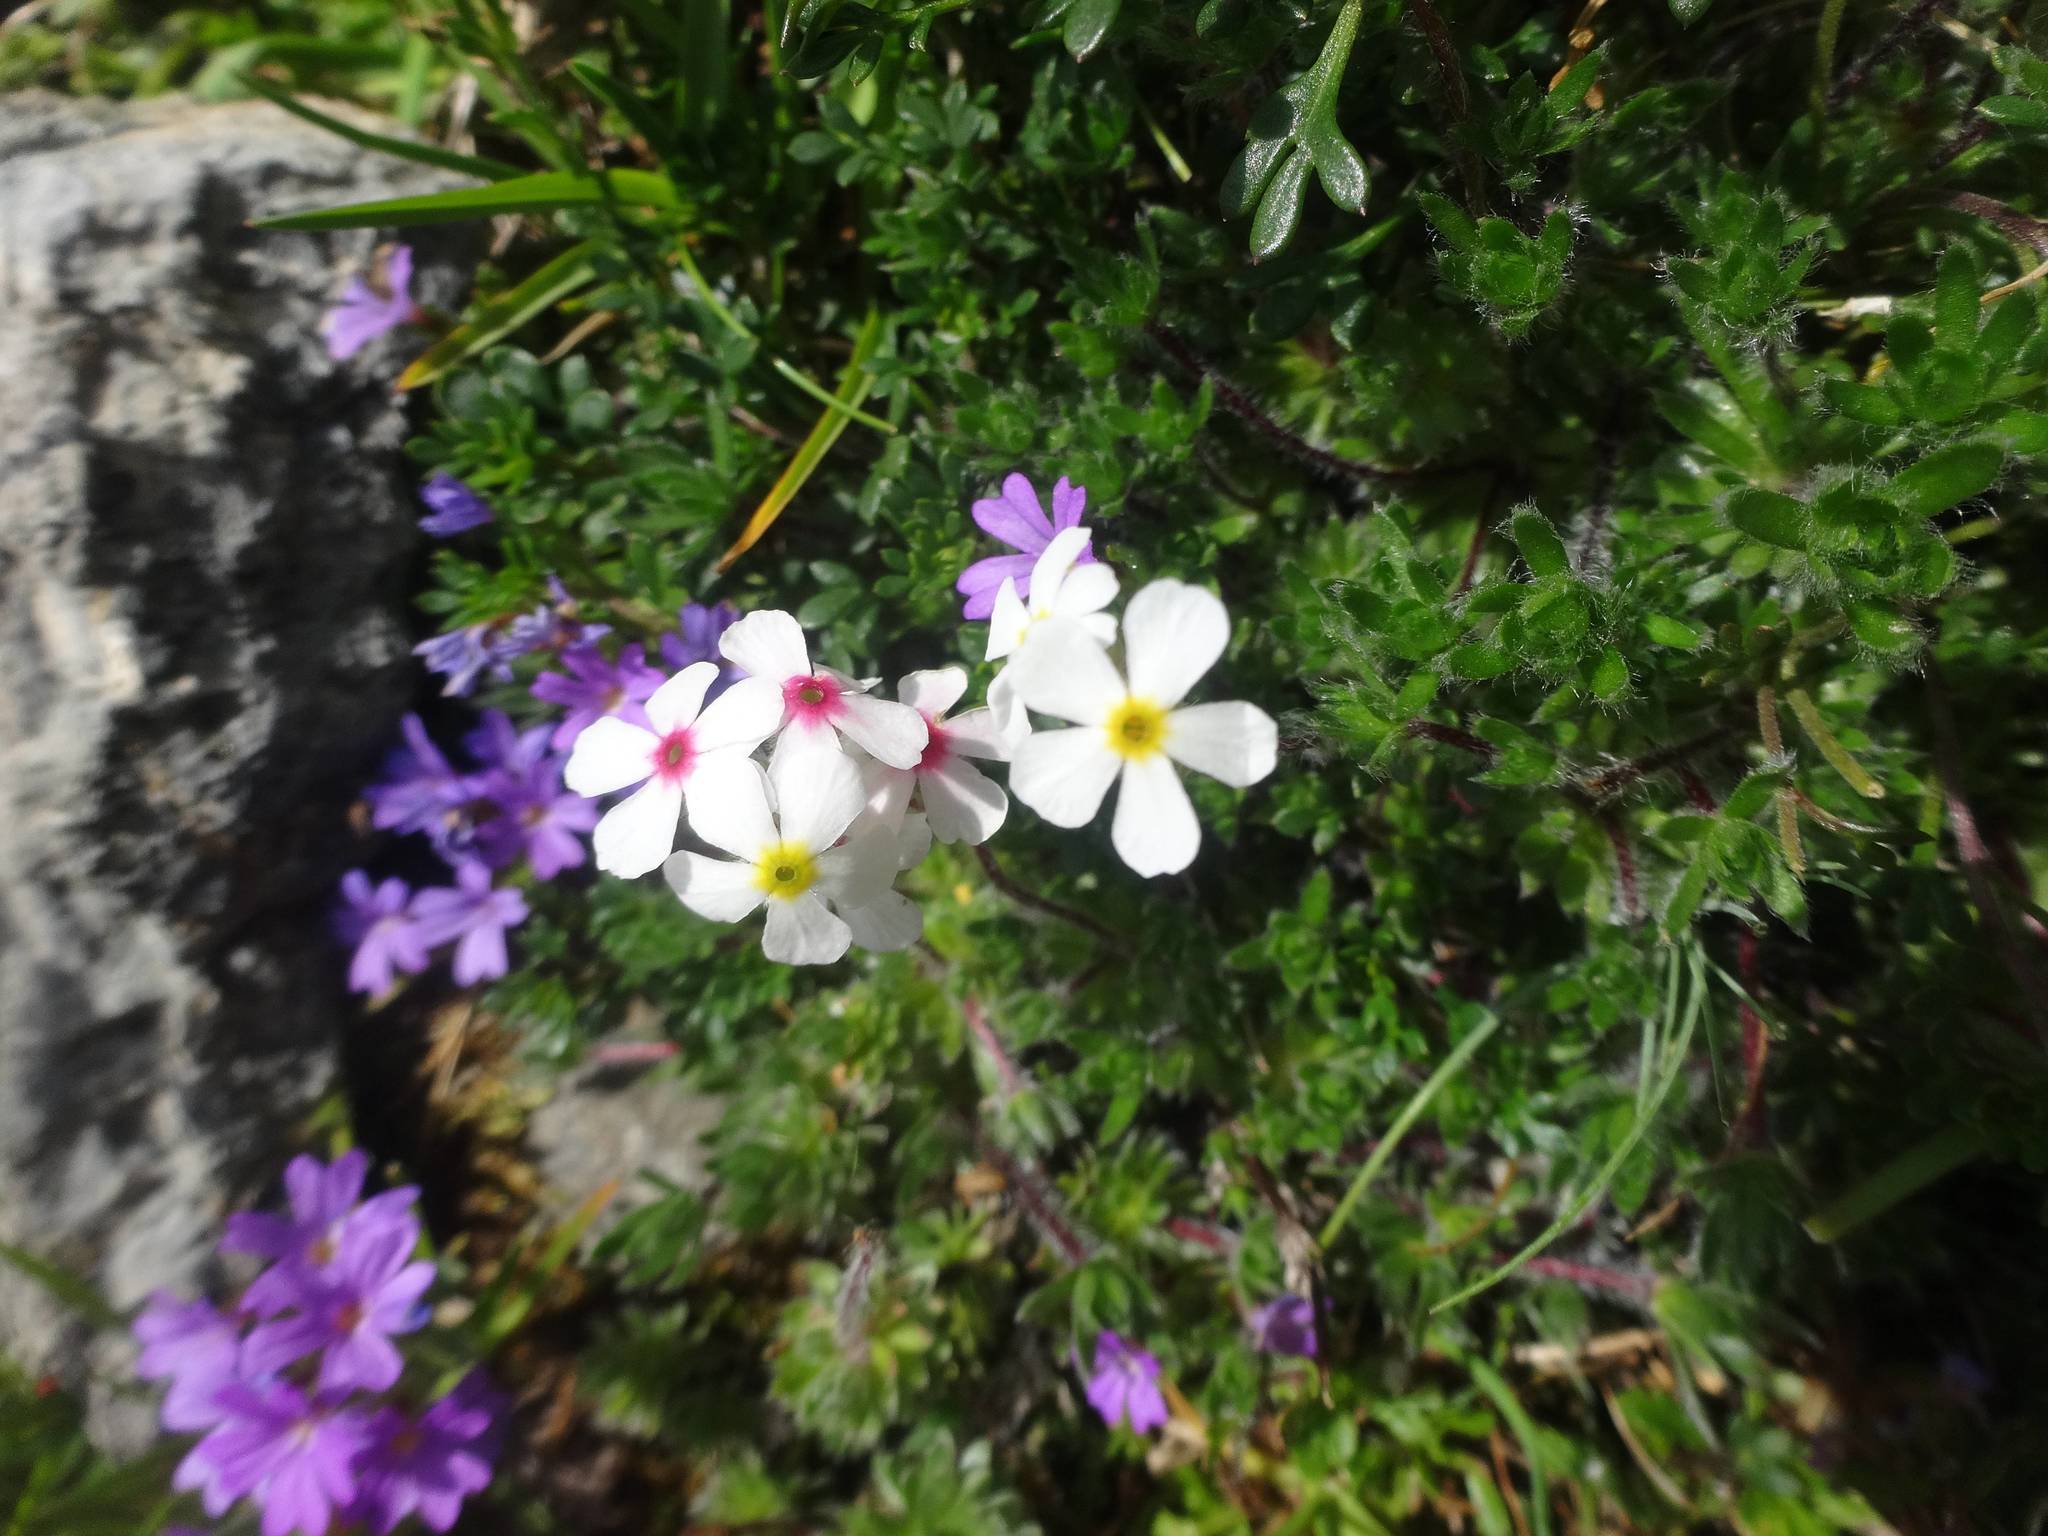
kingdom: Plantae
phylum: Tracheophyta
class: Magnoliopsida
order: Ericales
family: Primulaceae
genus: Androsace
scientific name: Androsace villosa
